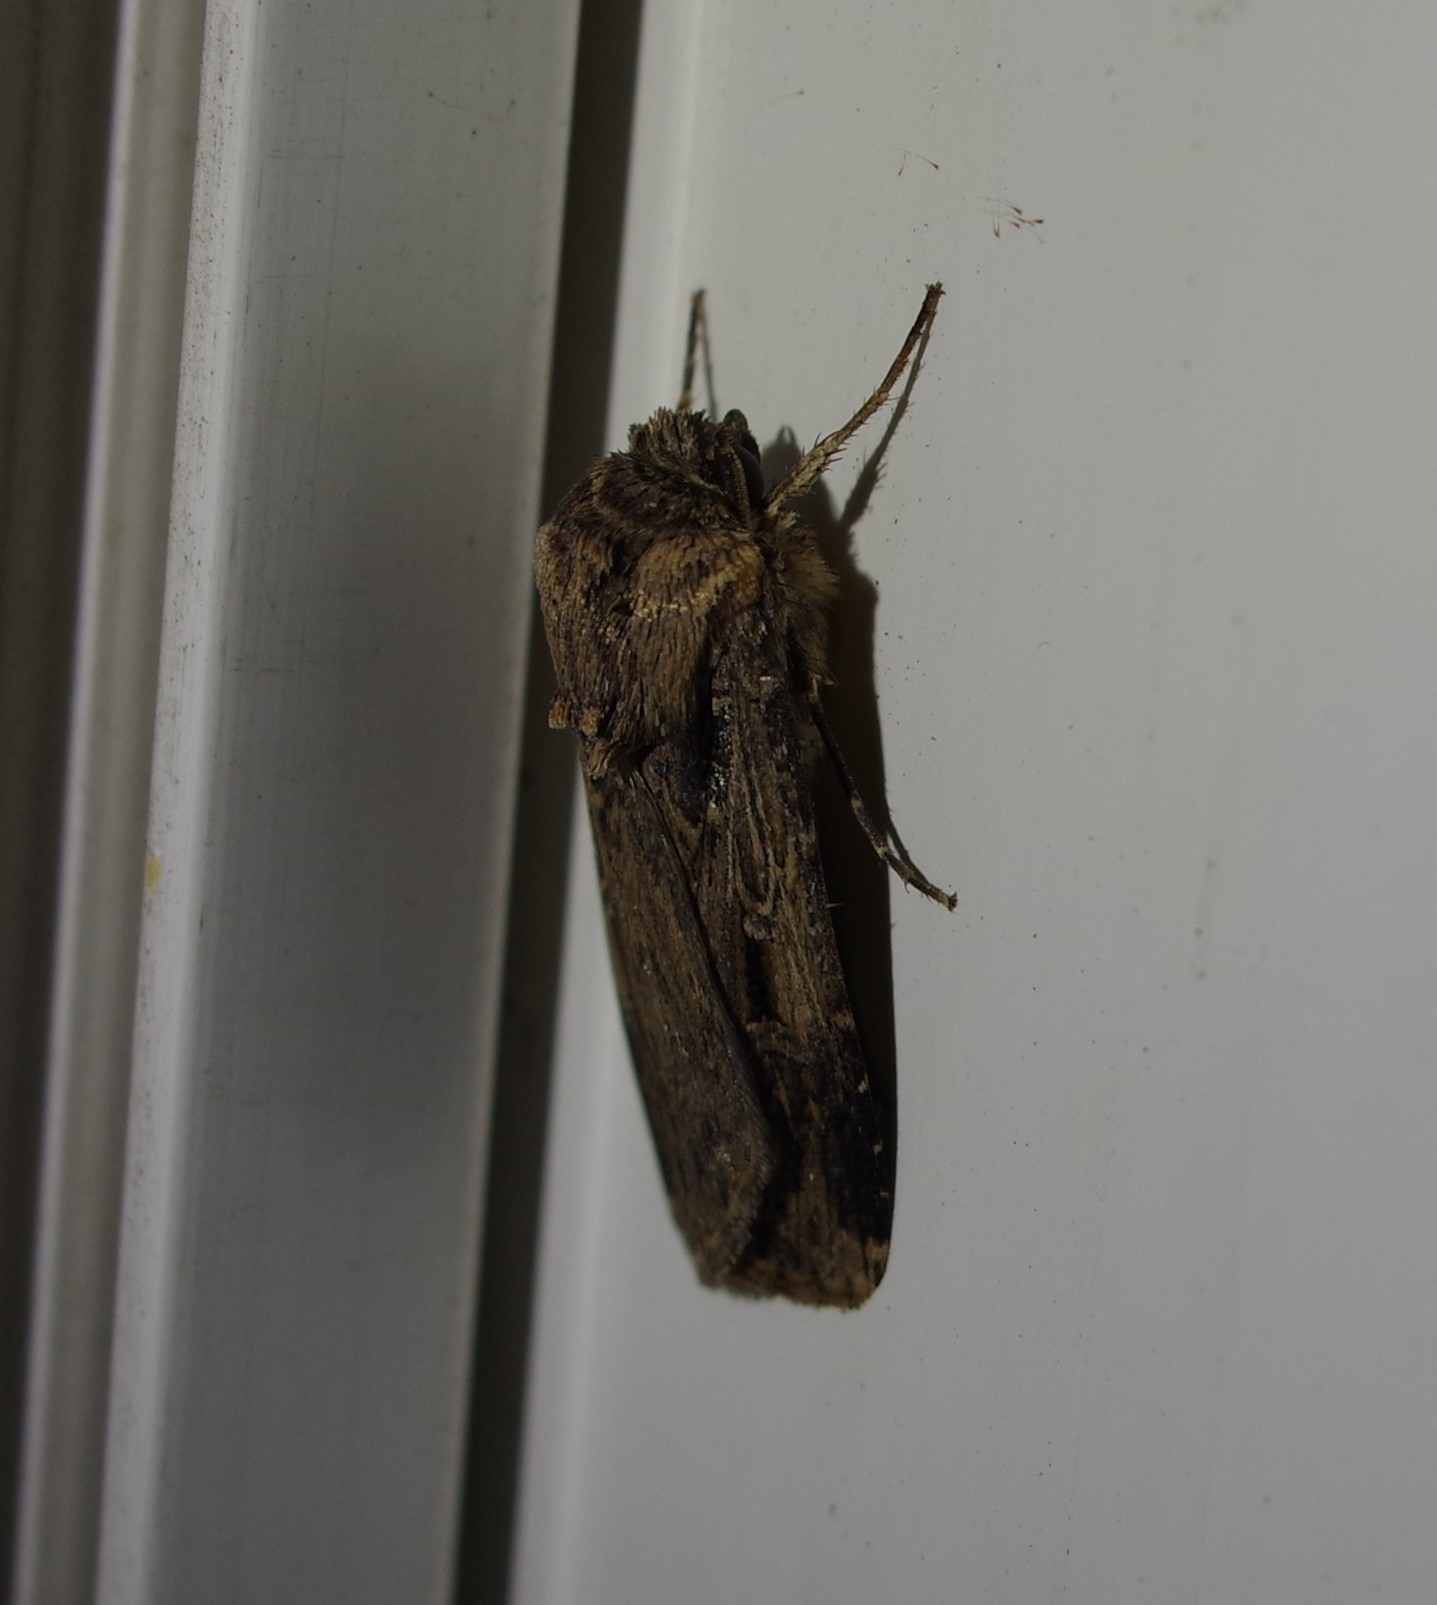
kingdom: Animalia
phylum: Arthropoda
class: Insecta
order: Lepidoptera
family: Noctuidae
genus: Feltia
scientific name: Feltia subterranea
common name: Granulate cutworm
